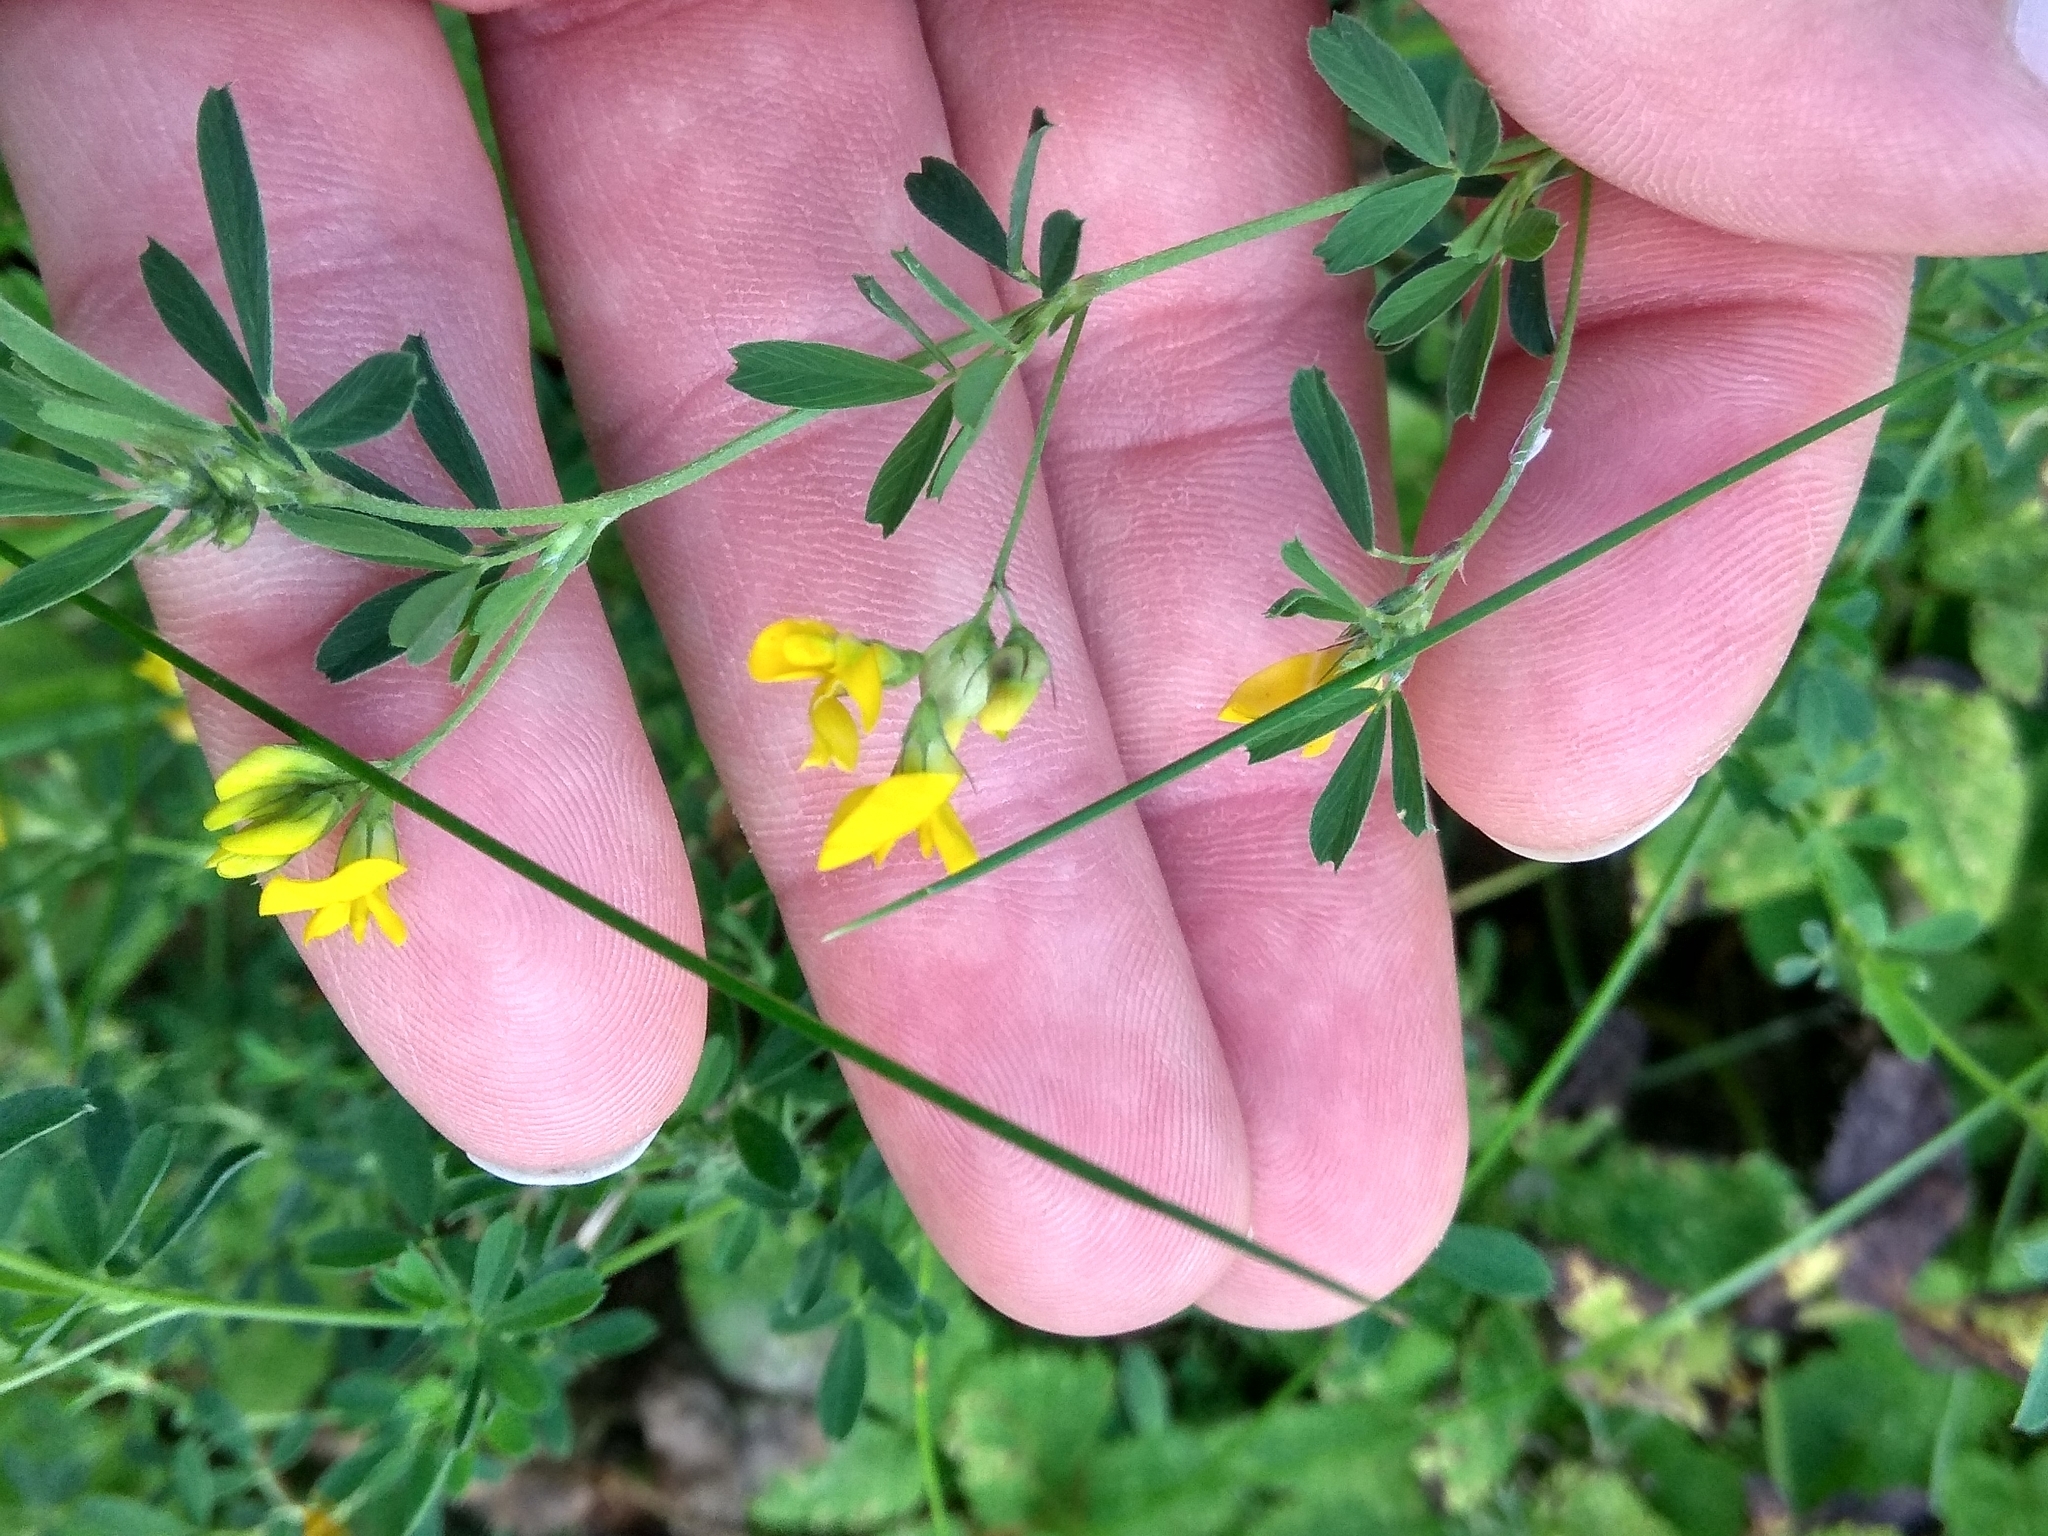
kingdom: Plantae
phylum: Tracheophyta
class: Magnoliopsida
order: Fabales
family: Fabaceae
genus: Medicago
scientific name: Medicago falcata
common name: Sickle medick
